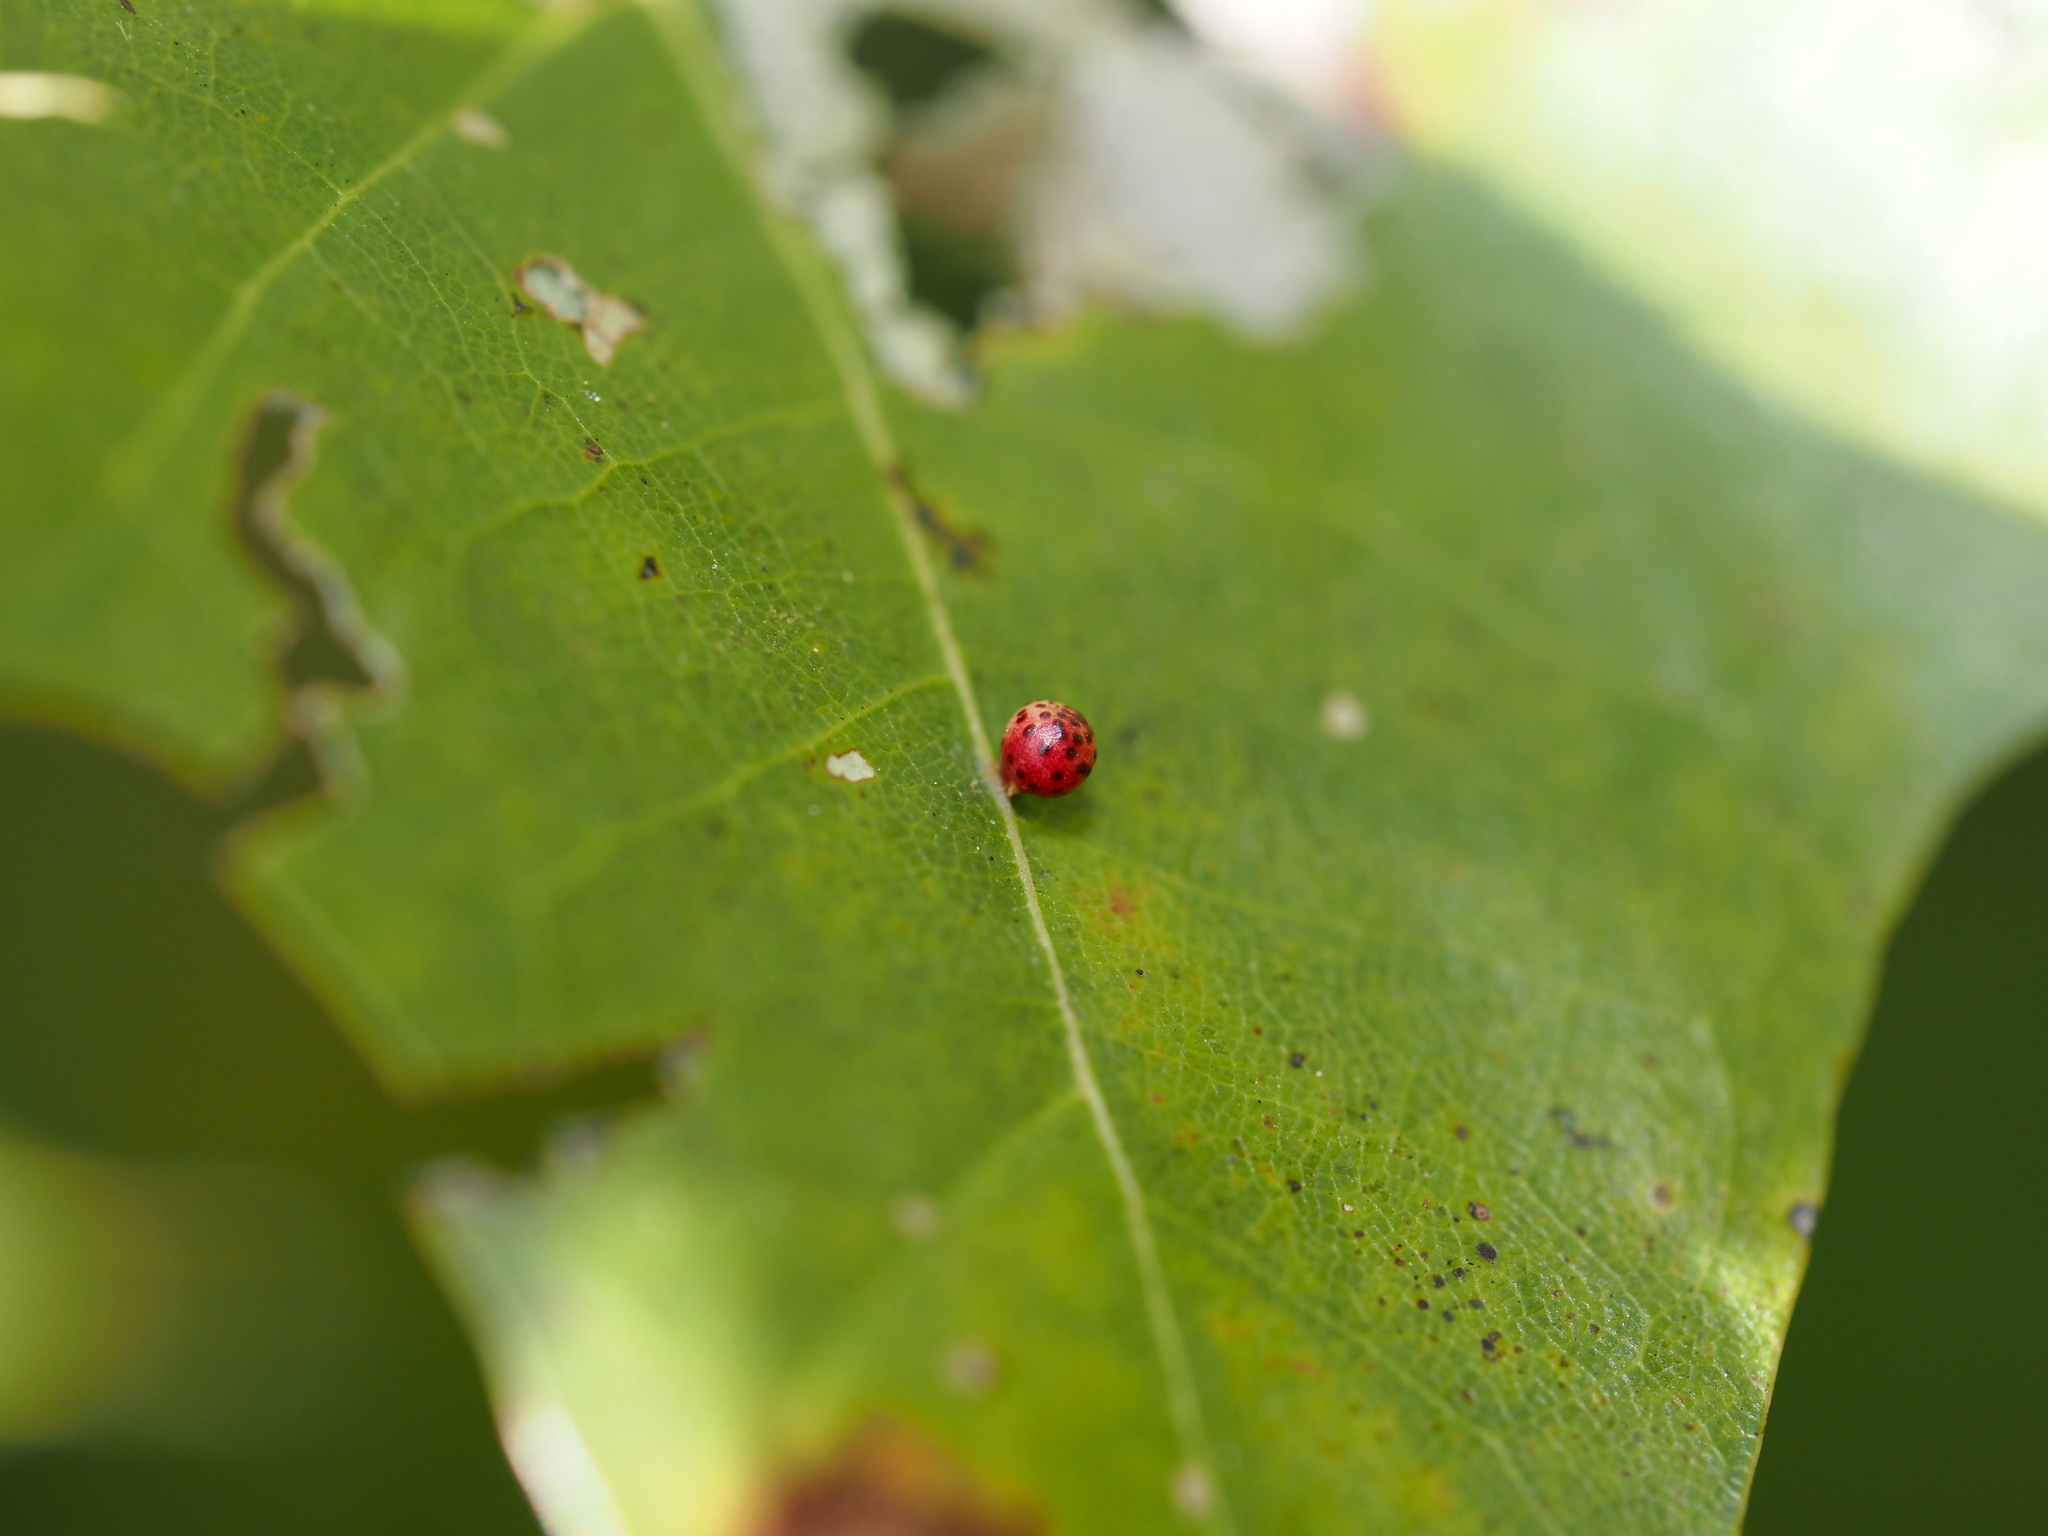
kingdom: Animalia
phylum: Arthropoda
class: Insecta
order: Hymenoptera
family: Cynipidae
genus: Zopheroteras
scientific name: Zopheroteras
